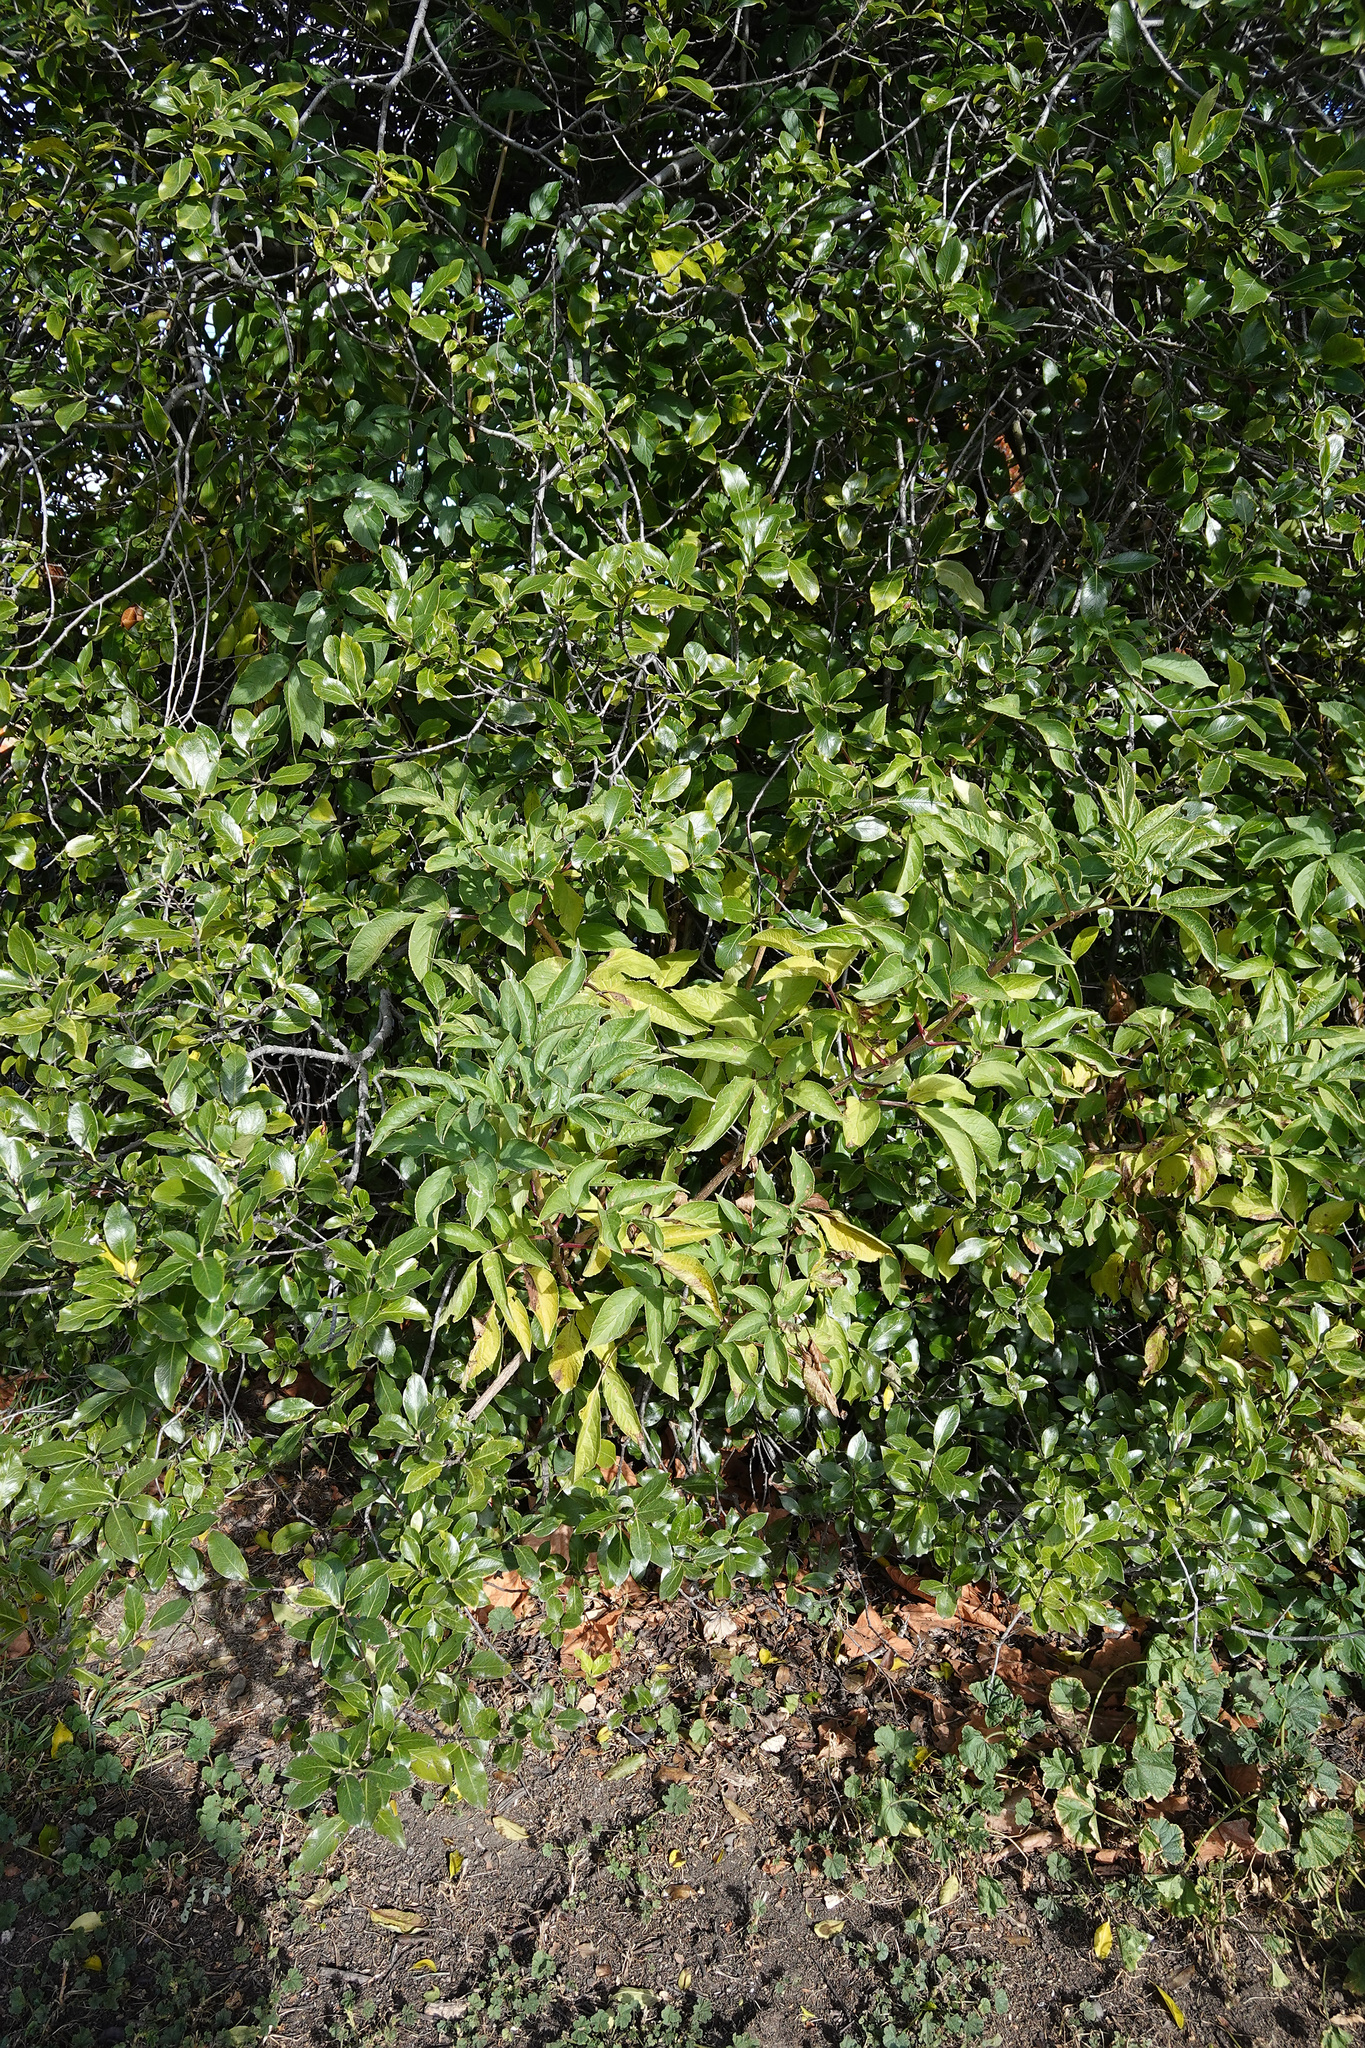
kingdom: Plantae
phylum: Tracheophyta
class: Magnoliopsida
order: Dipsacales
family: Viburnaceae
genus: Sambucus
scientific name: Sambucus nigra
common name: Elder
